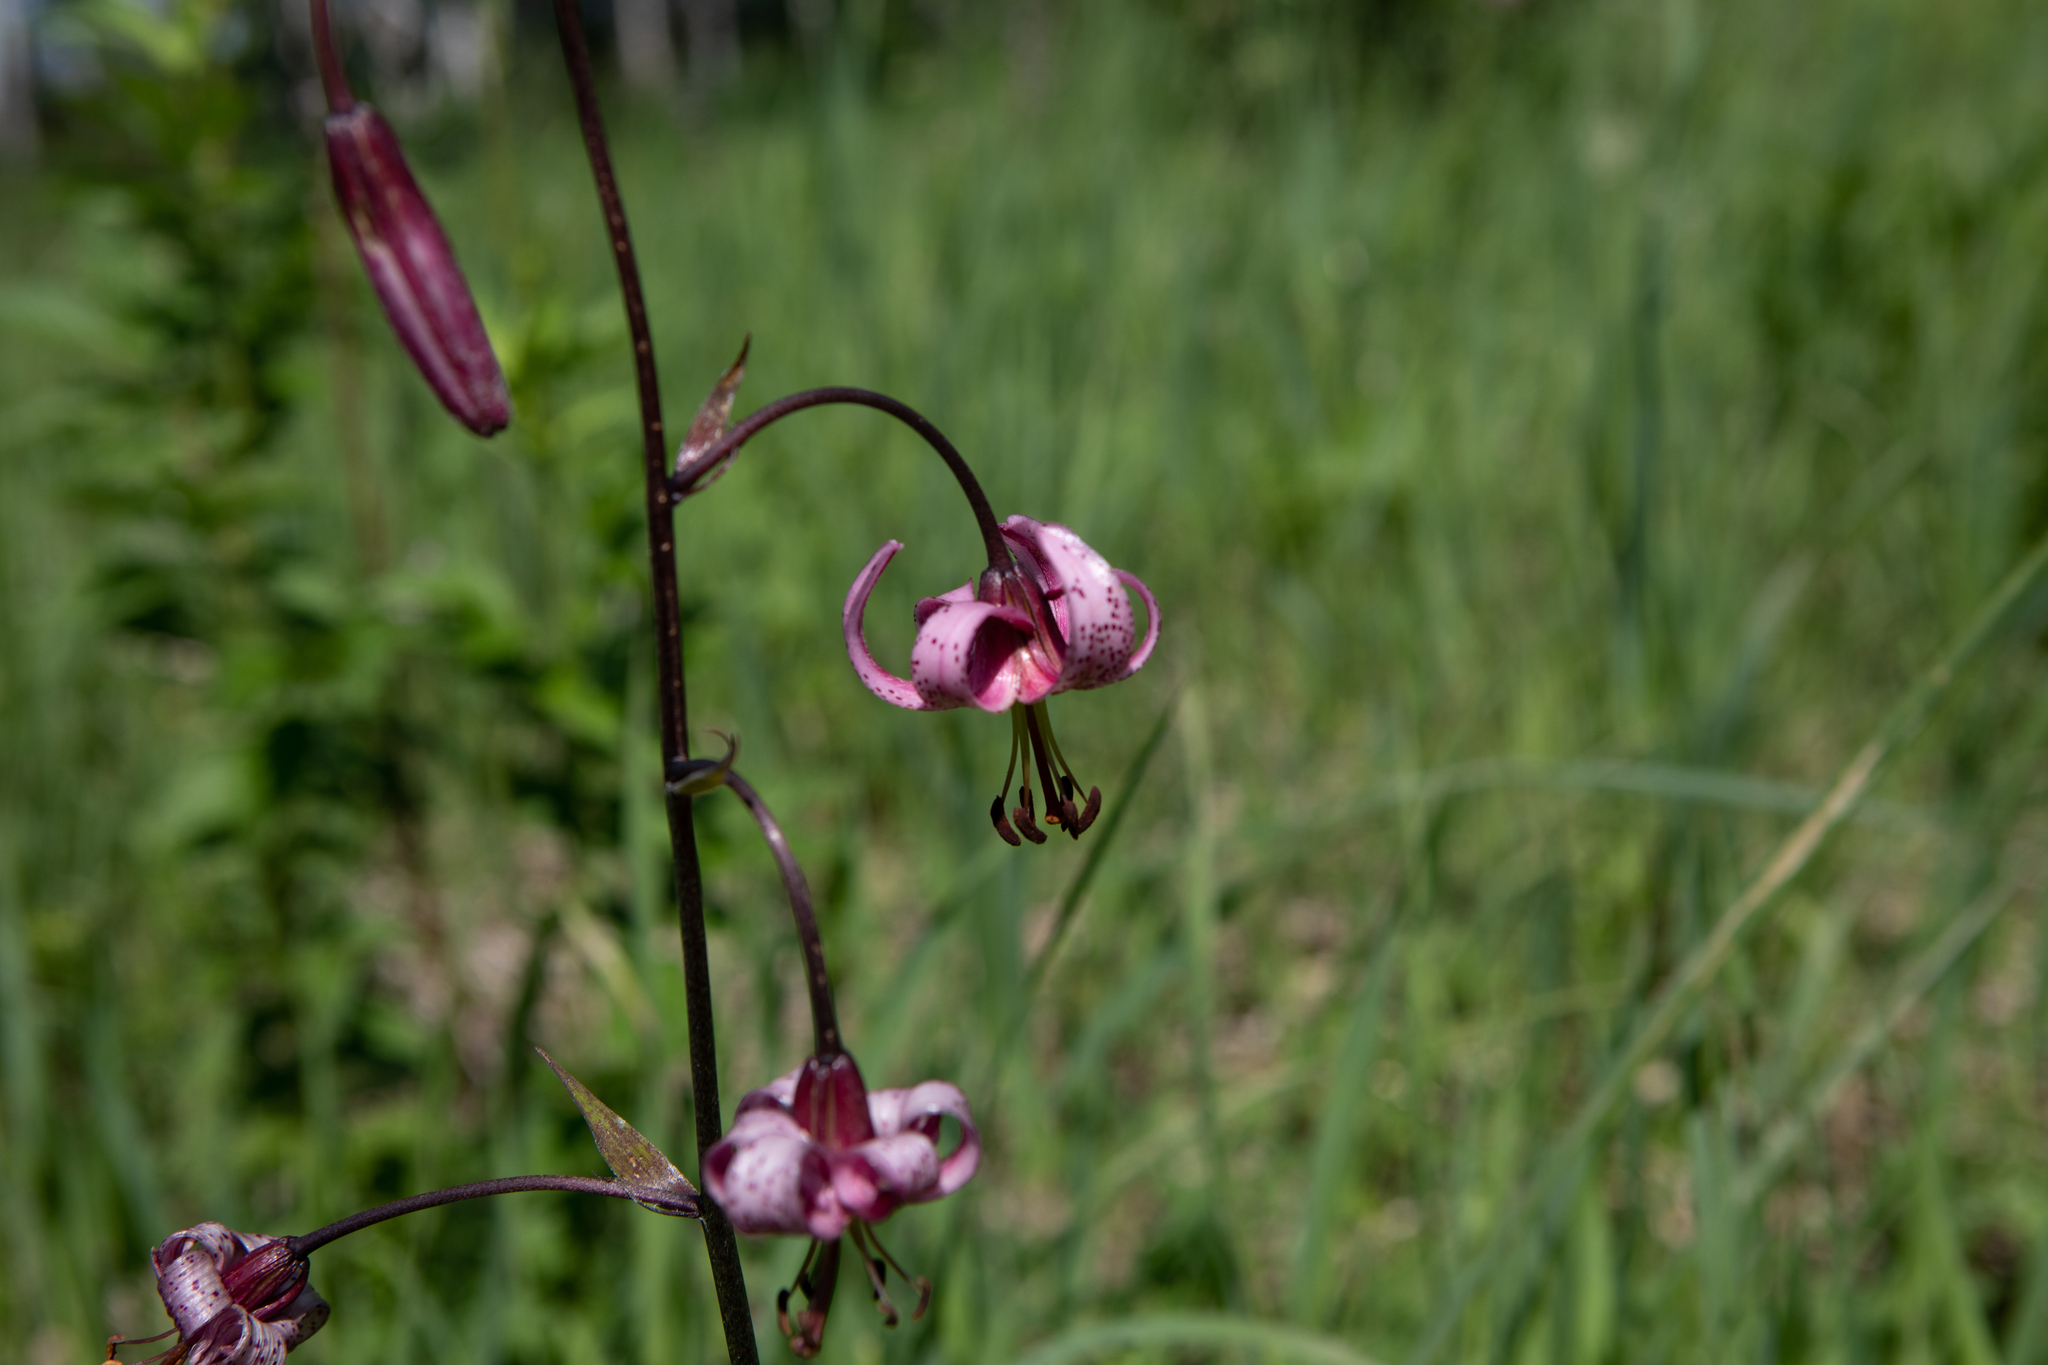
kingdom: Plantae
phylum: Tracheophyta
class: Liliopsida
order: Liliales
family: Liliaceae
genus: Lilium
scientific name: Lilium martagon
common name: Martagon lily
